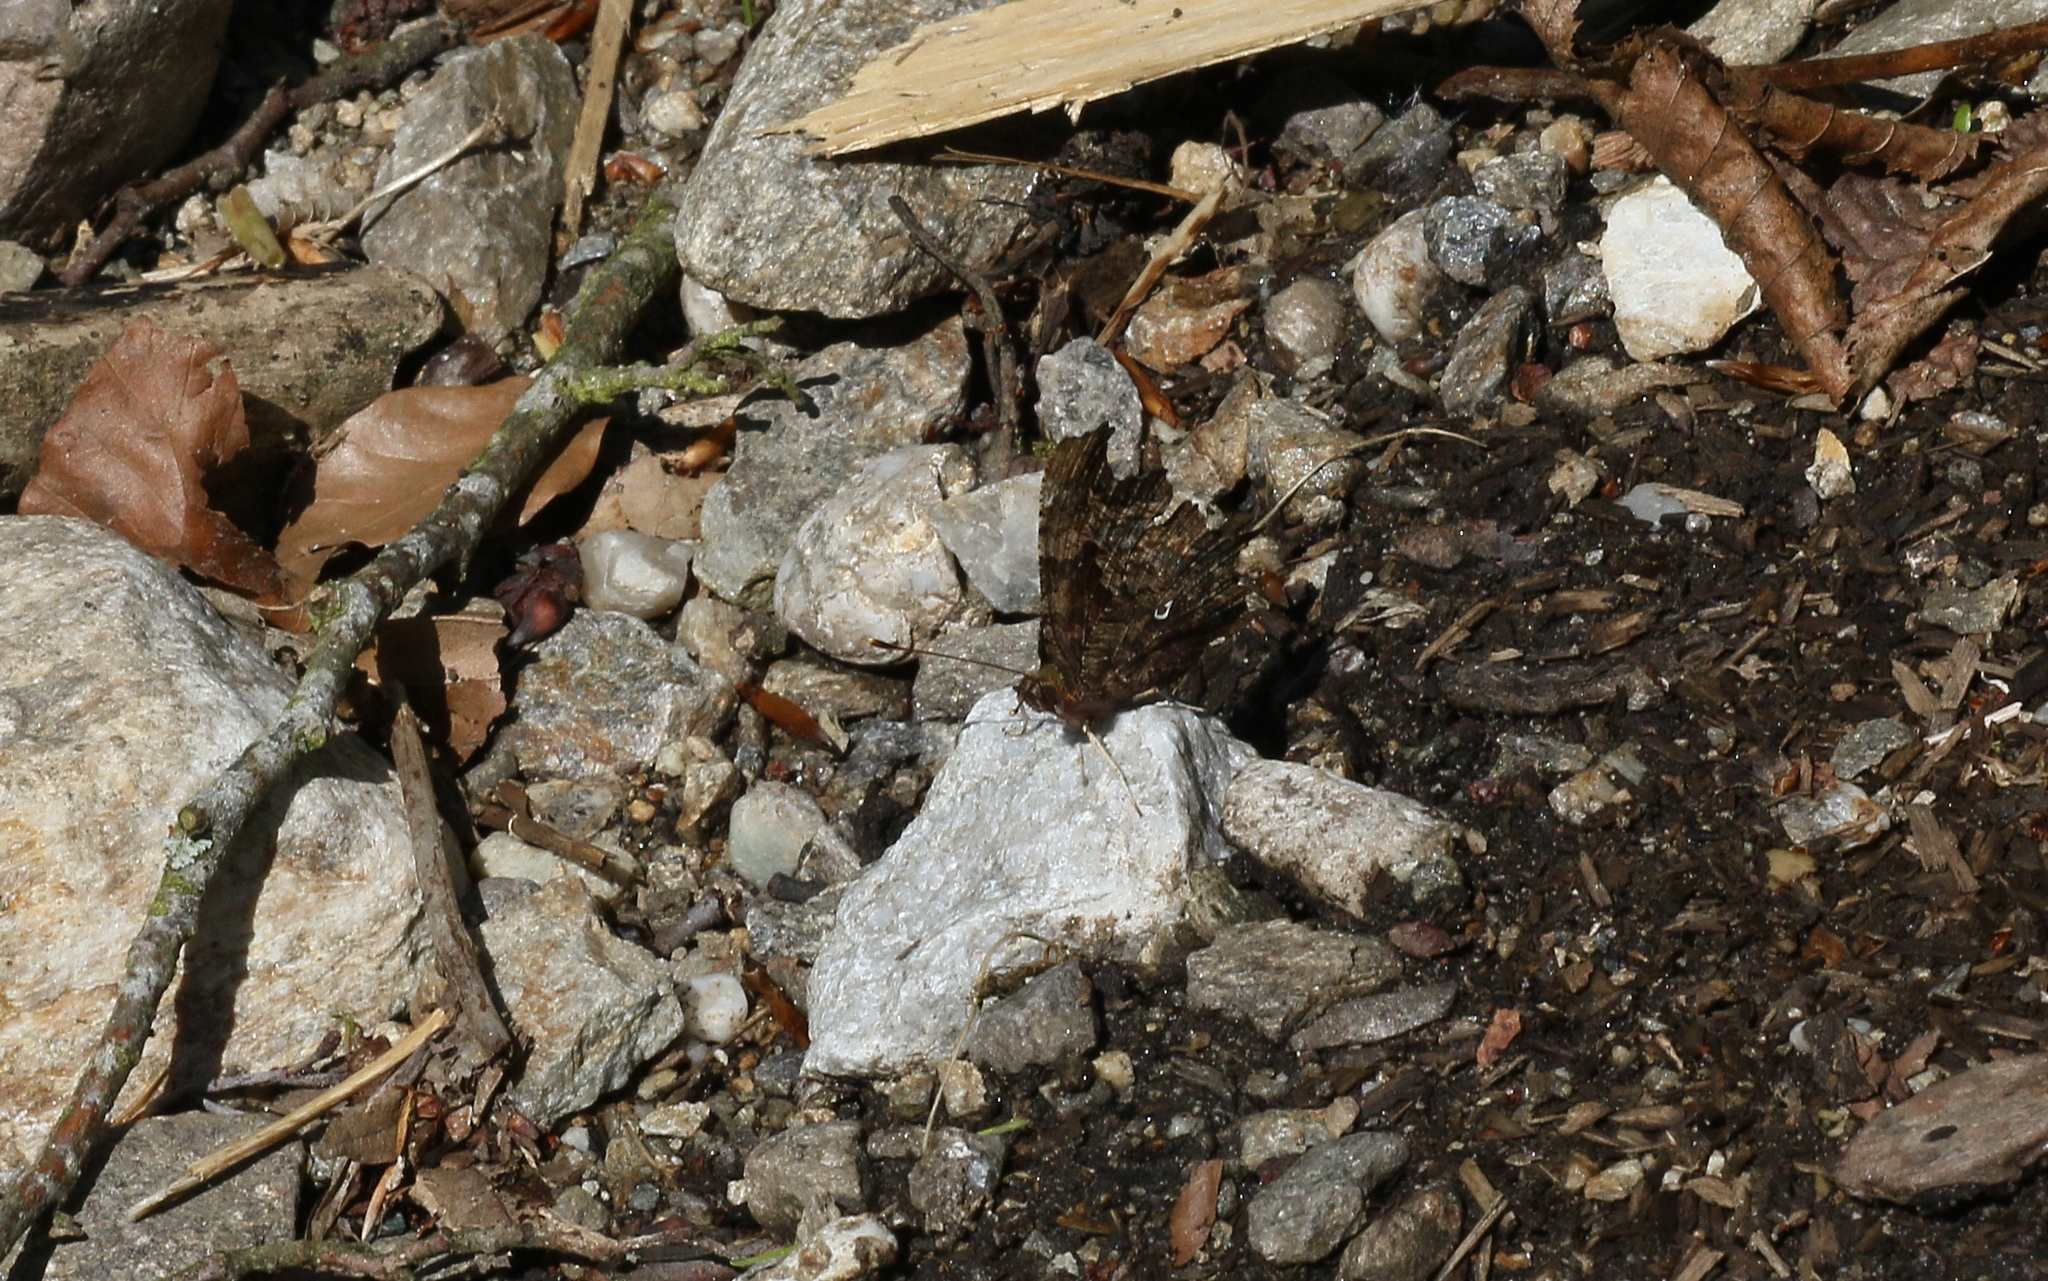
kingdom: Animalia
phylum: Arthropoda
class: Insecta
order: Lepidoptera
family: Nymphalidae
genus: Polygonia
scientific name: Polygonia c-album
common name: Comma
